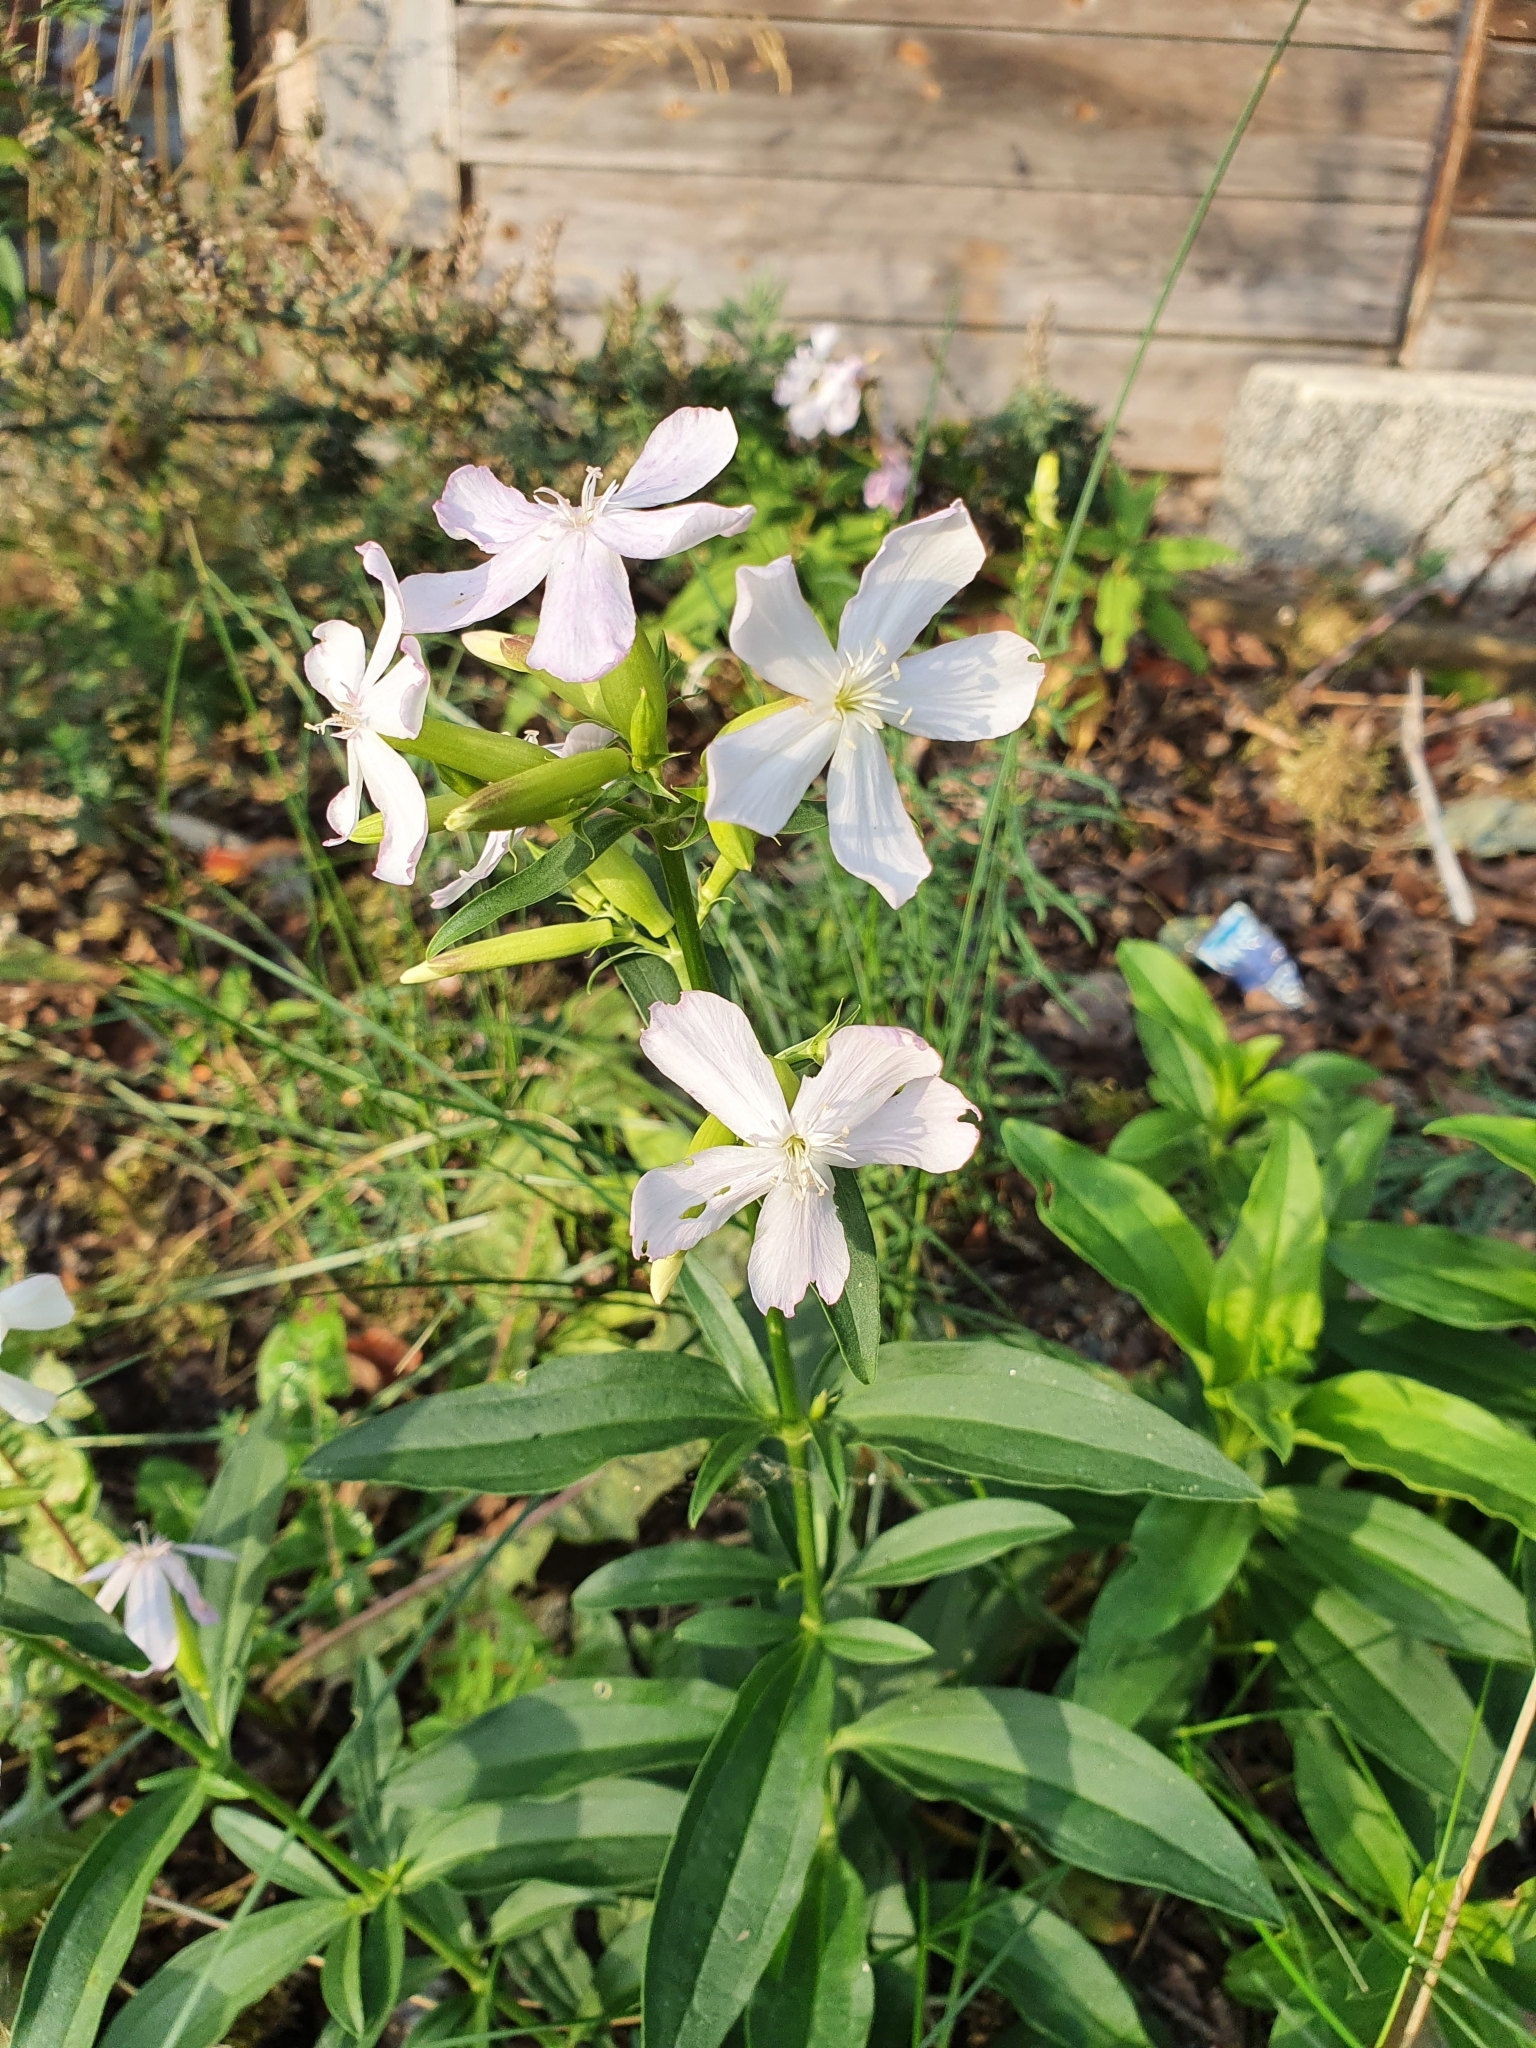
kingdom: Plantae
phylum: Tracheophyta
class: Magnoliopsida
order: Caryophyllales
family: Caryophyllaceae
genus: Saponaria
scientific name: Saponaria officinalis
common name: Soapwort
